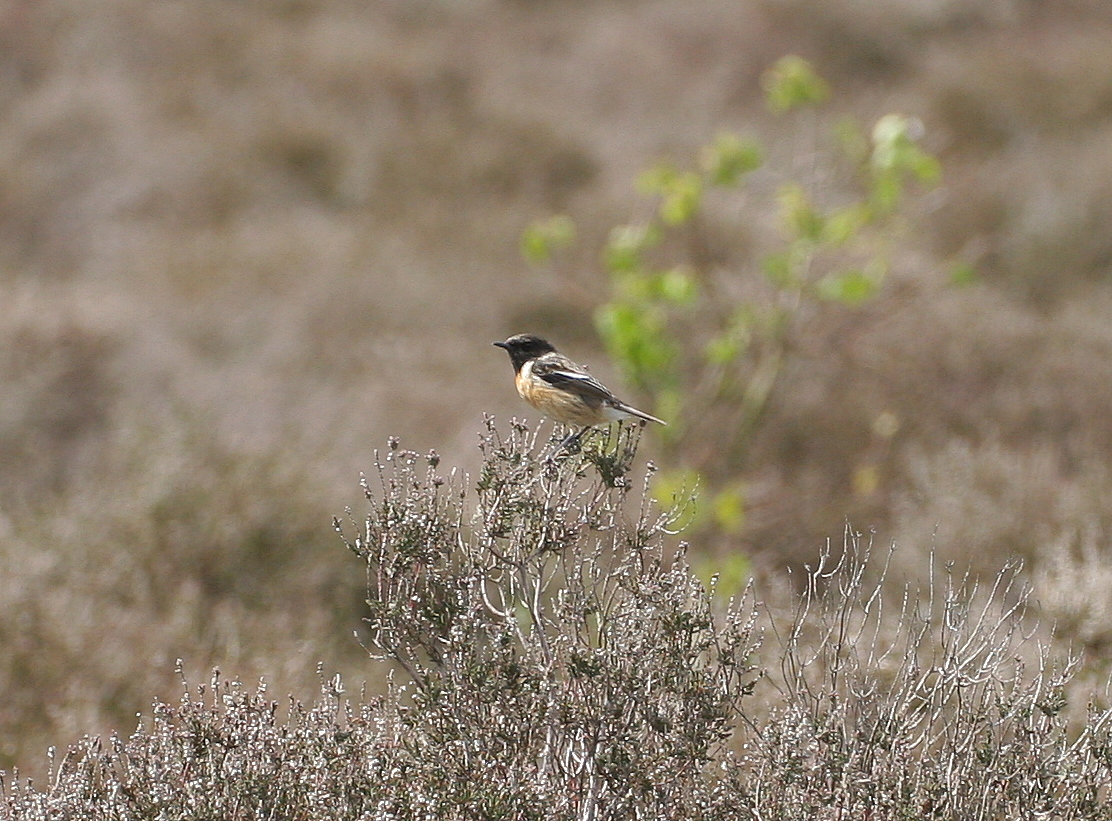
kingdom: Animalia
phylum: Chordata
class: Aves
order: Passeriformes
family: Muscicapidae
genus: Saxicola
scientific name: Saxicola rubicola
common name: European stonechat
